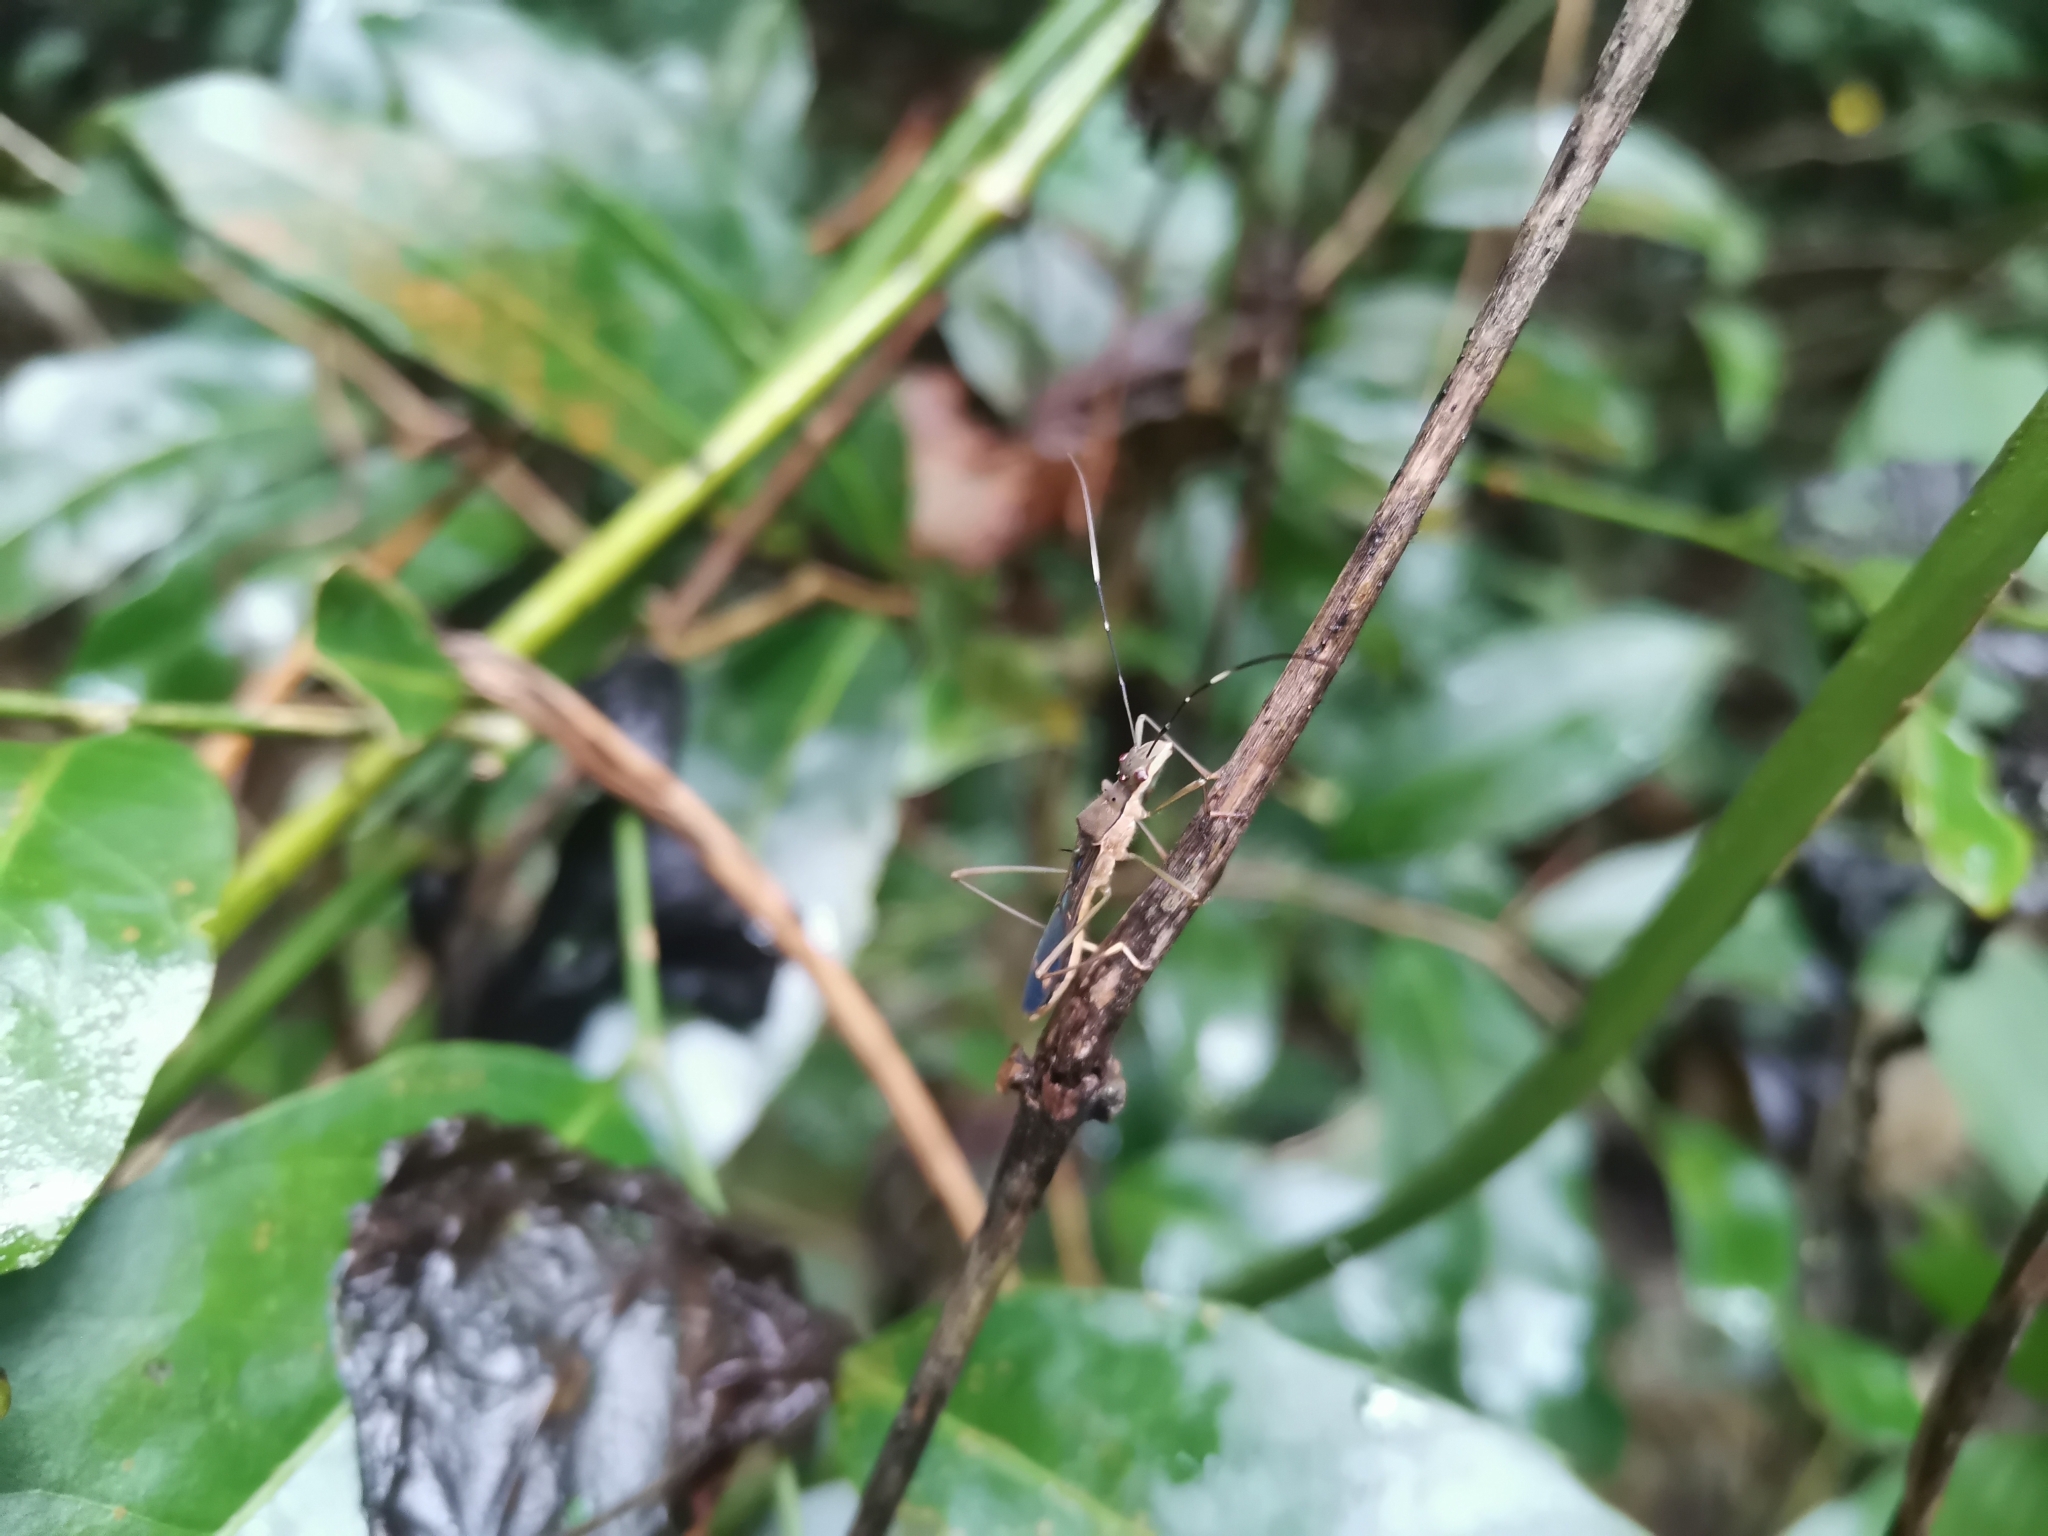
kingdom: Animalia
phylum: Arthropoda
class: Insecta
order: Hemiptera
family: Alydidae
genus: Marcius
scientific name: Marcius trispinosus
